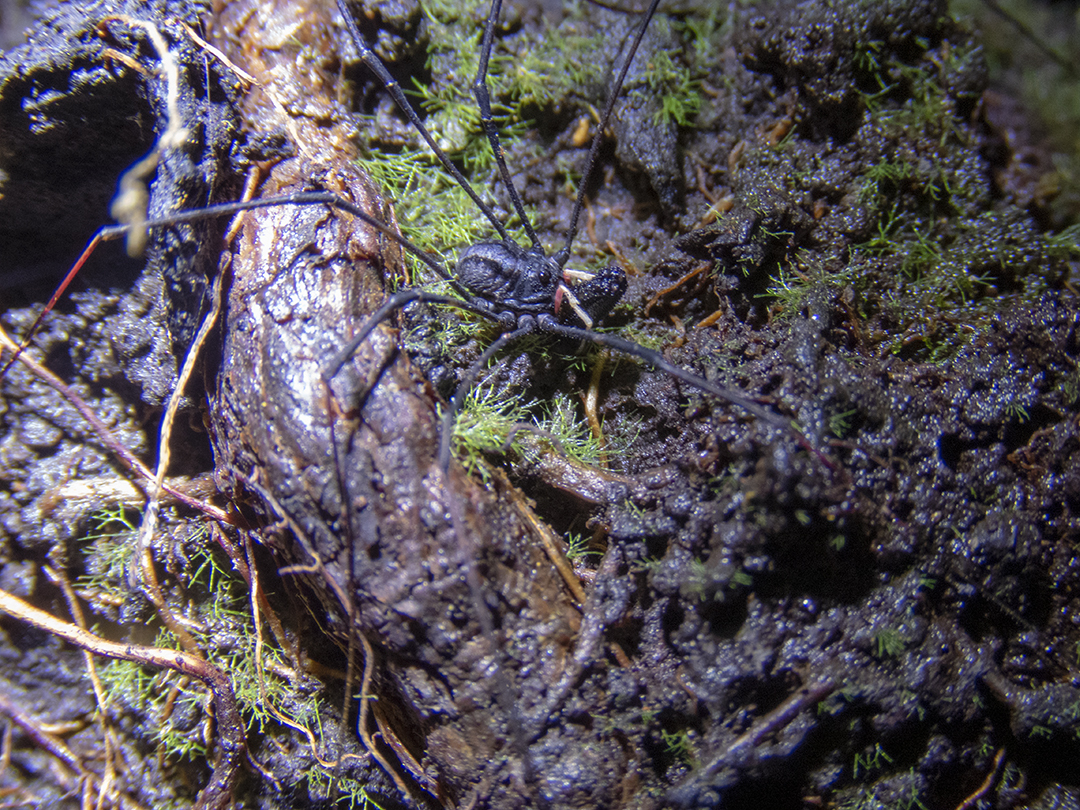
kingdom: Animalia
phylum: Arthropoda
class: Arachnida
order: Opiliones
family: Neopilionidae
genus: Forsteropsalis
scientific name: Forsteropsalis inconstans
